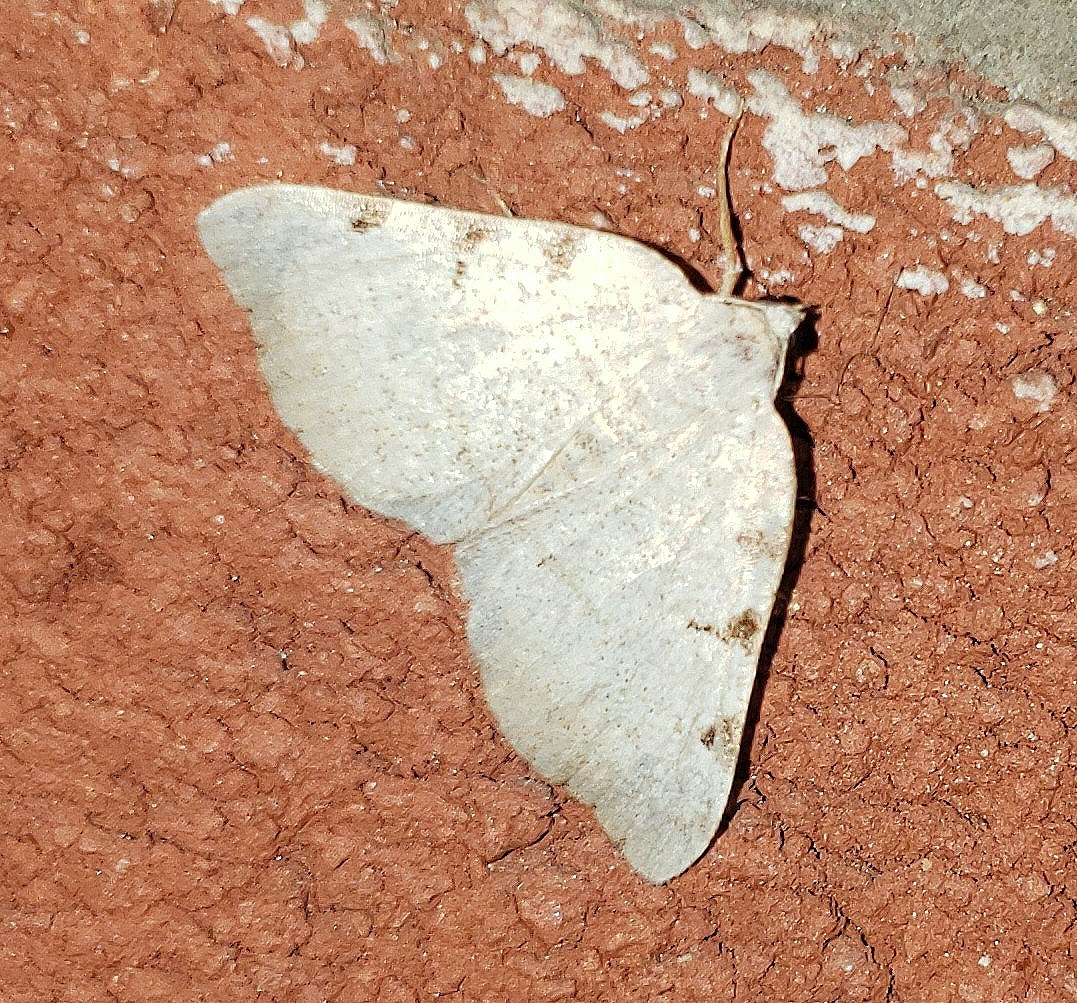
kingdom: Animalia
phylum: Arthropoda
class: Insecta
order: Lepidoptera
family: Geometridae
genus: Macaria
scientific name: Macaria coortaria
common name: Four-spotted granite
